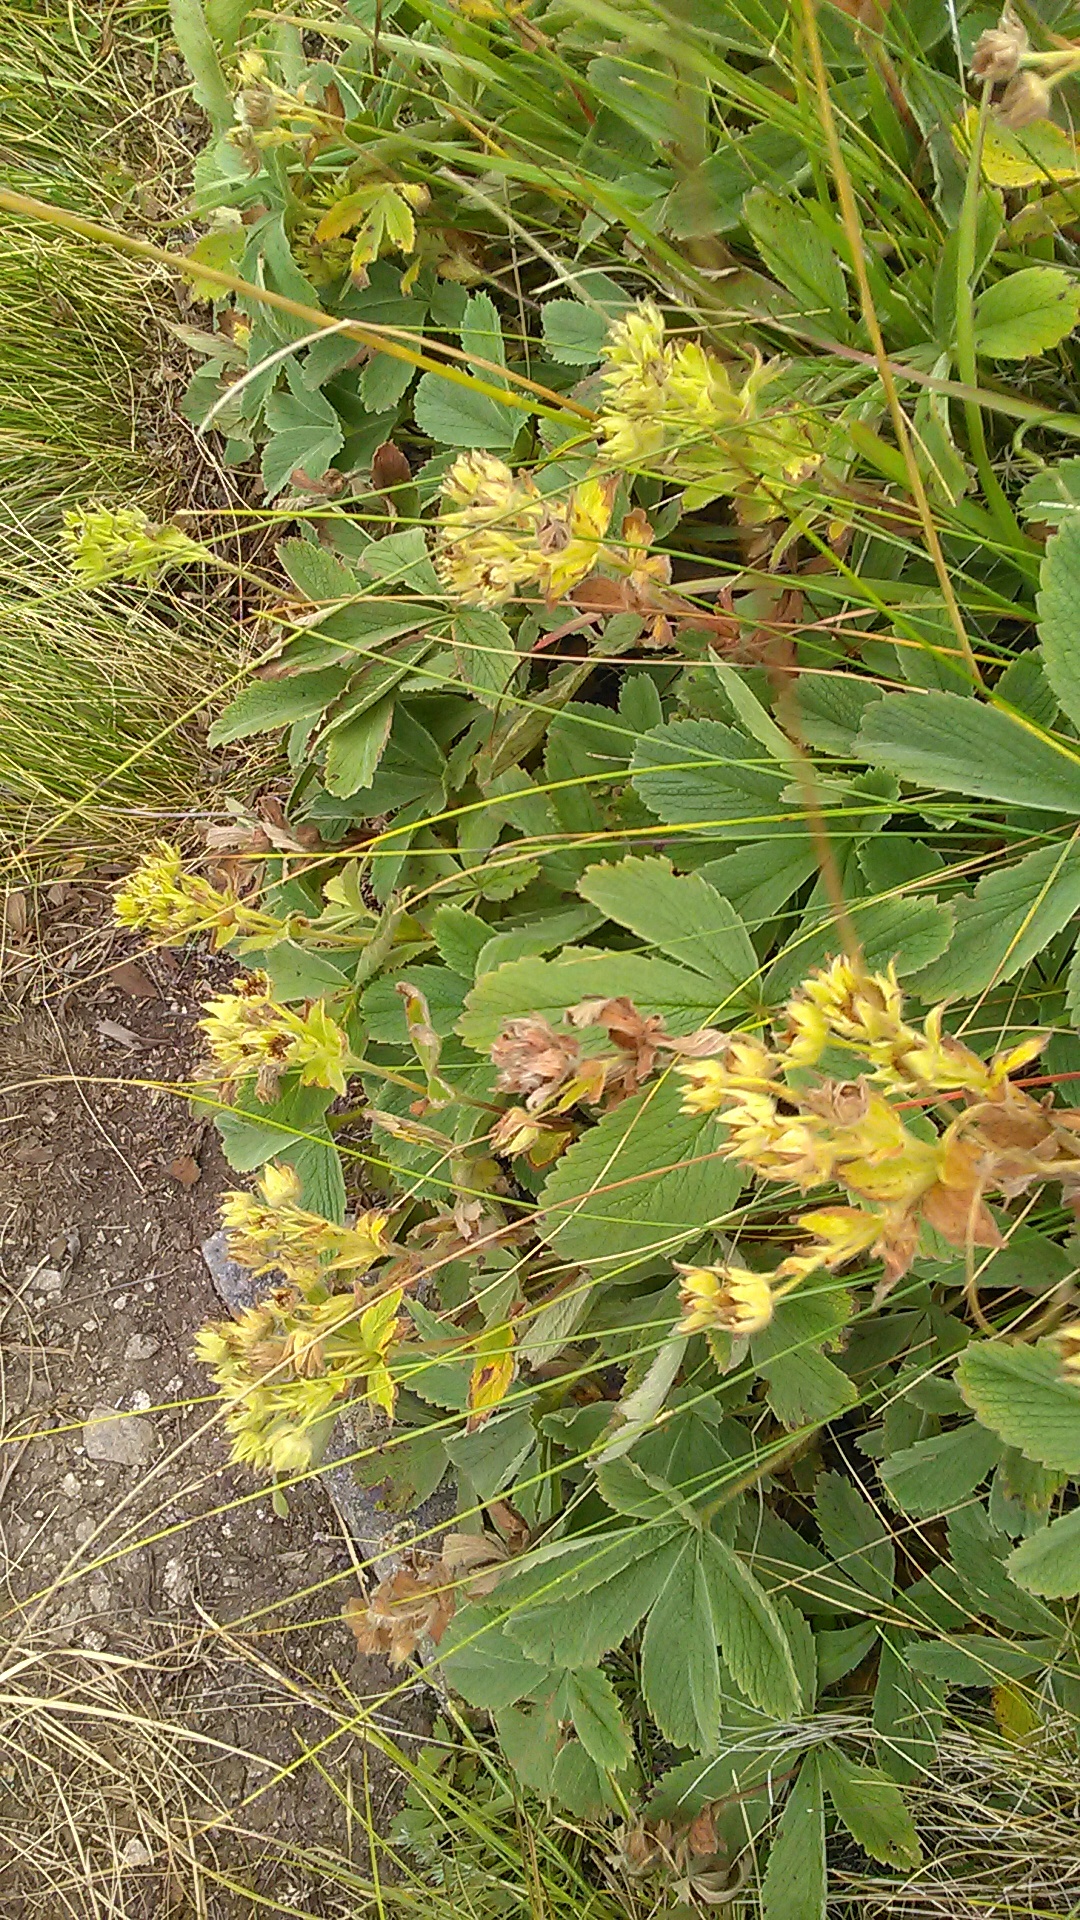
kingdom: Plantae
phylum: Tracheophyta
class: Magnoliopsida
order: Rosales
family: Rosaceae
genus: Potentilla
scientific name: Potentilla brachypetala
